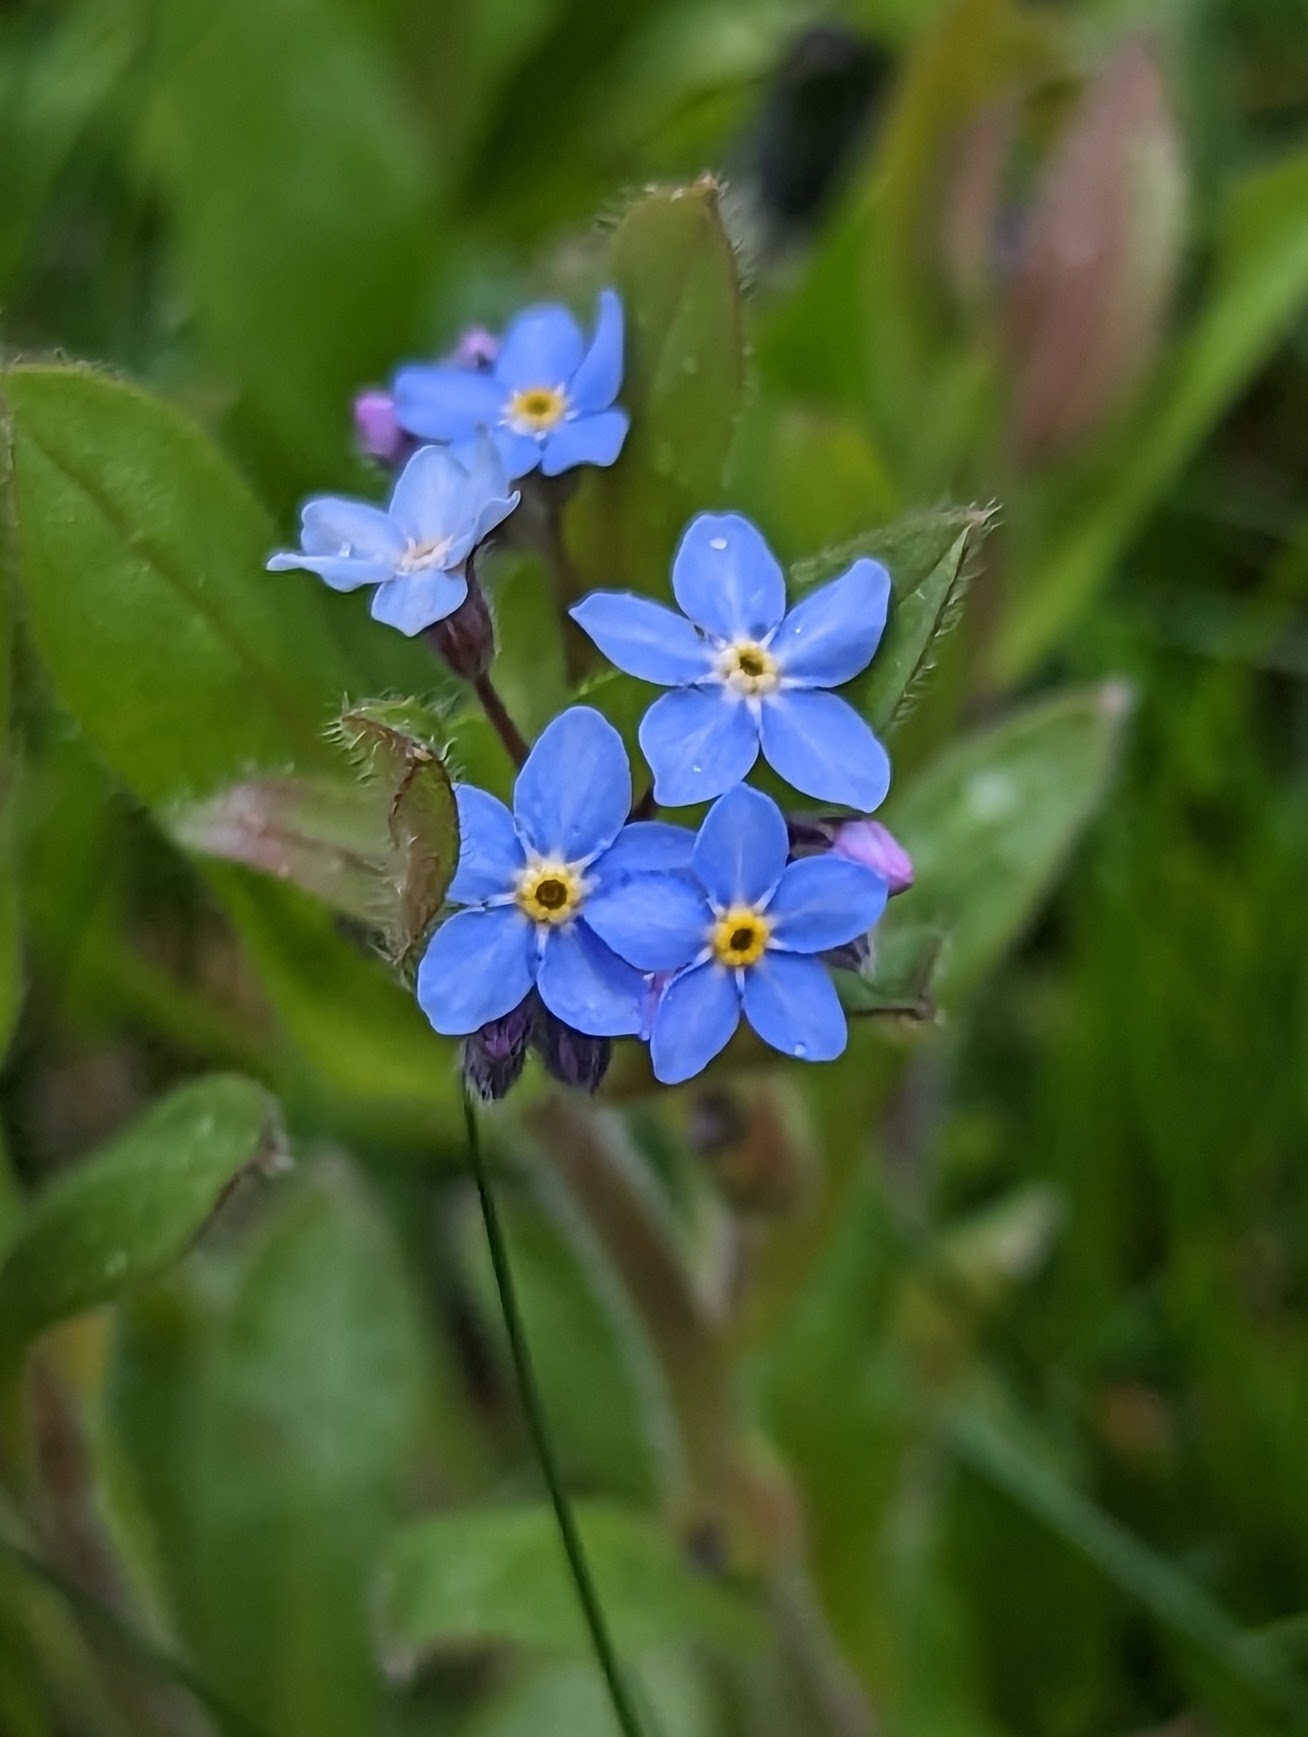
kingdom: Plantae
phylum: Tracheophyta
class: Magnoliopsida
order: Boraginales
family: Boraginaceae
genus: Myosotis
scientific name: Myosotis sylvatica
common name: Wood forget-me-not
